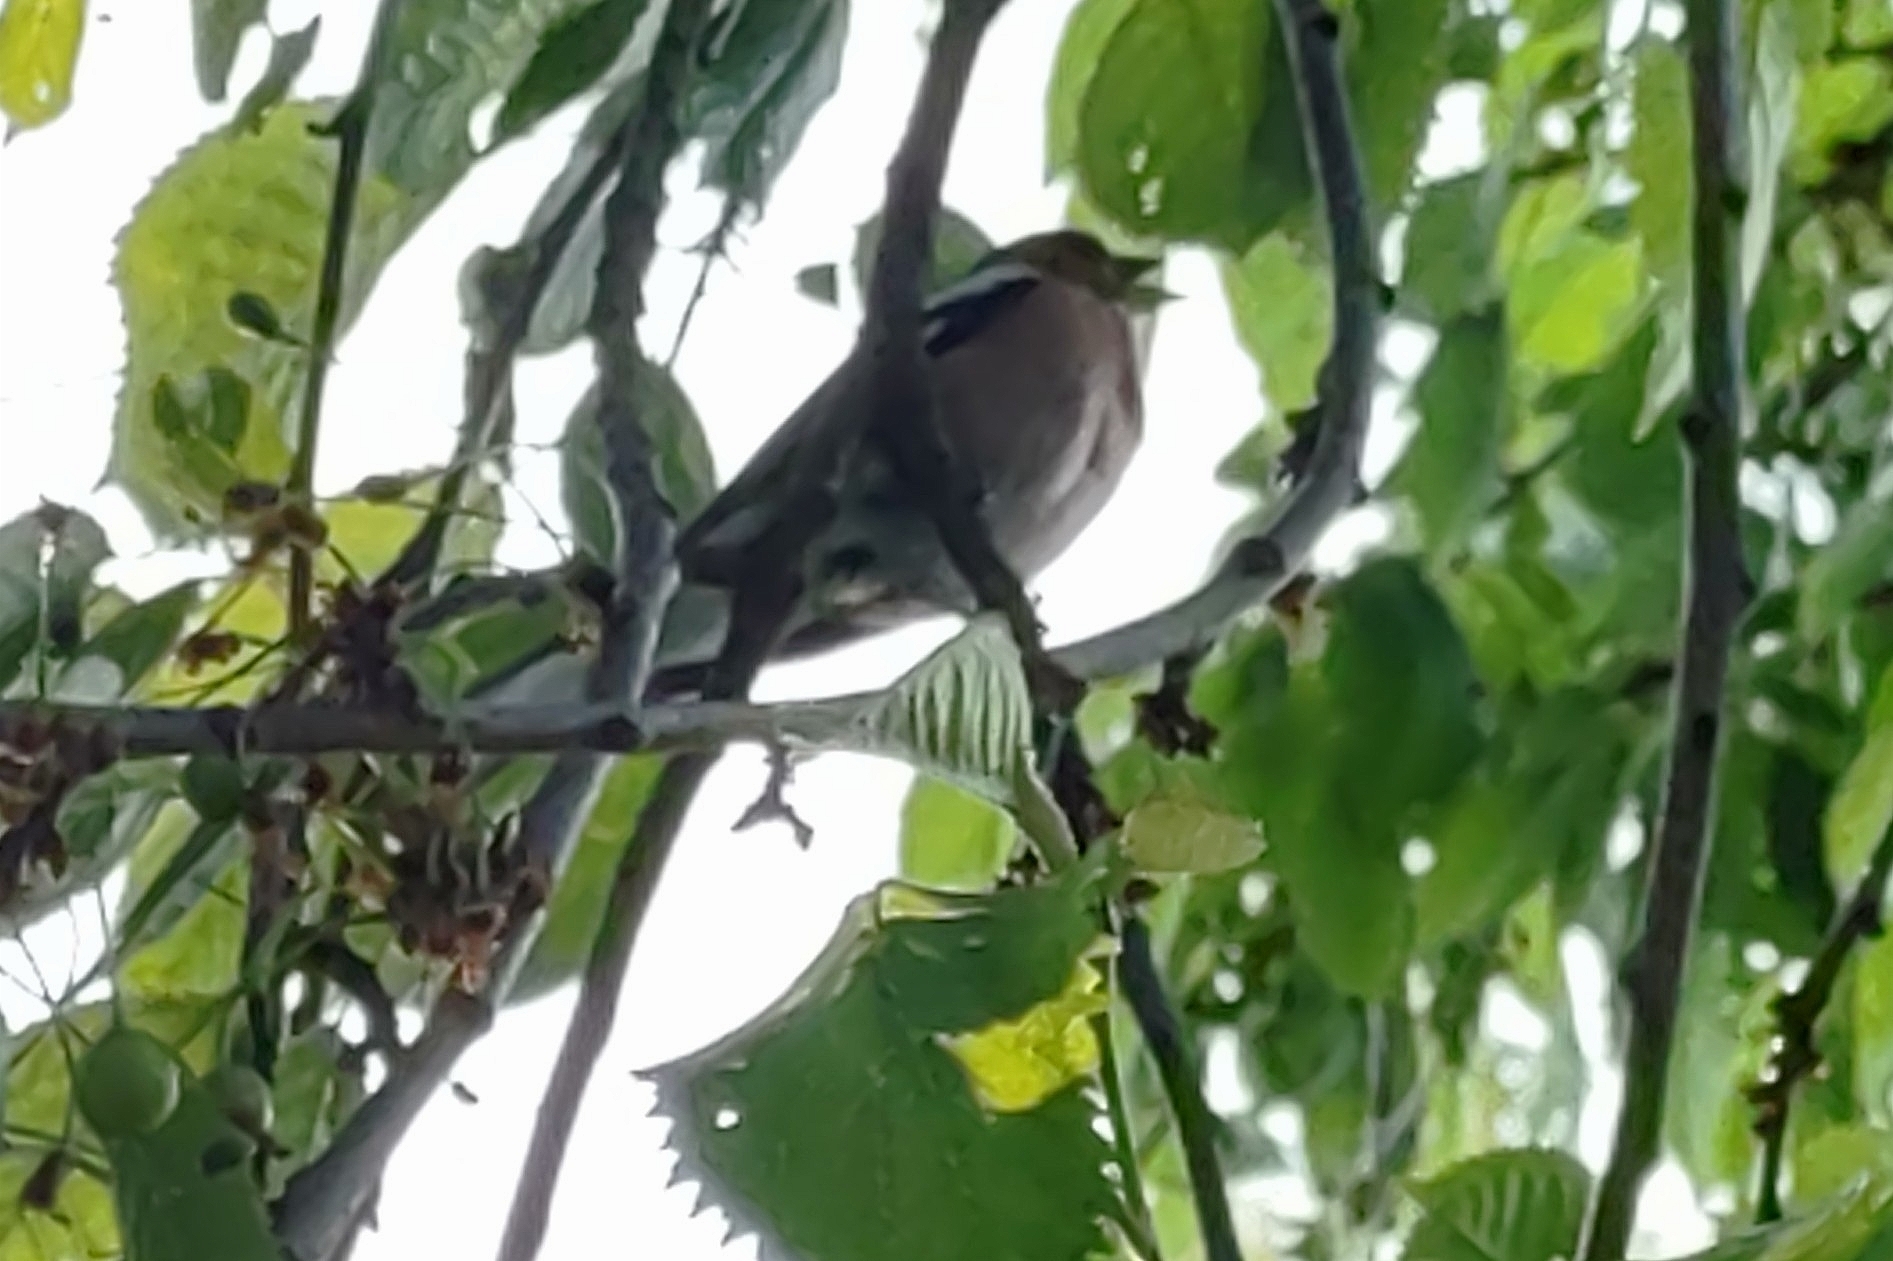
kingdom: Animalia
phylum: Chordata
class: Aves
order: Passeriformes
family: Fringillidae
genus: Fringilla
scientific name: Fringilla coelebs
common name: Common chaffinch
